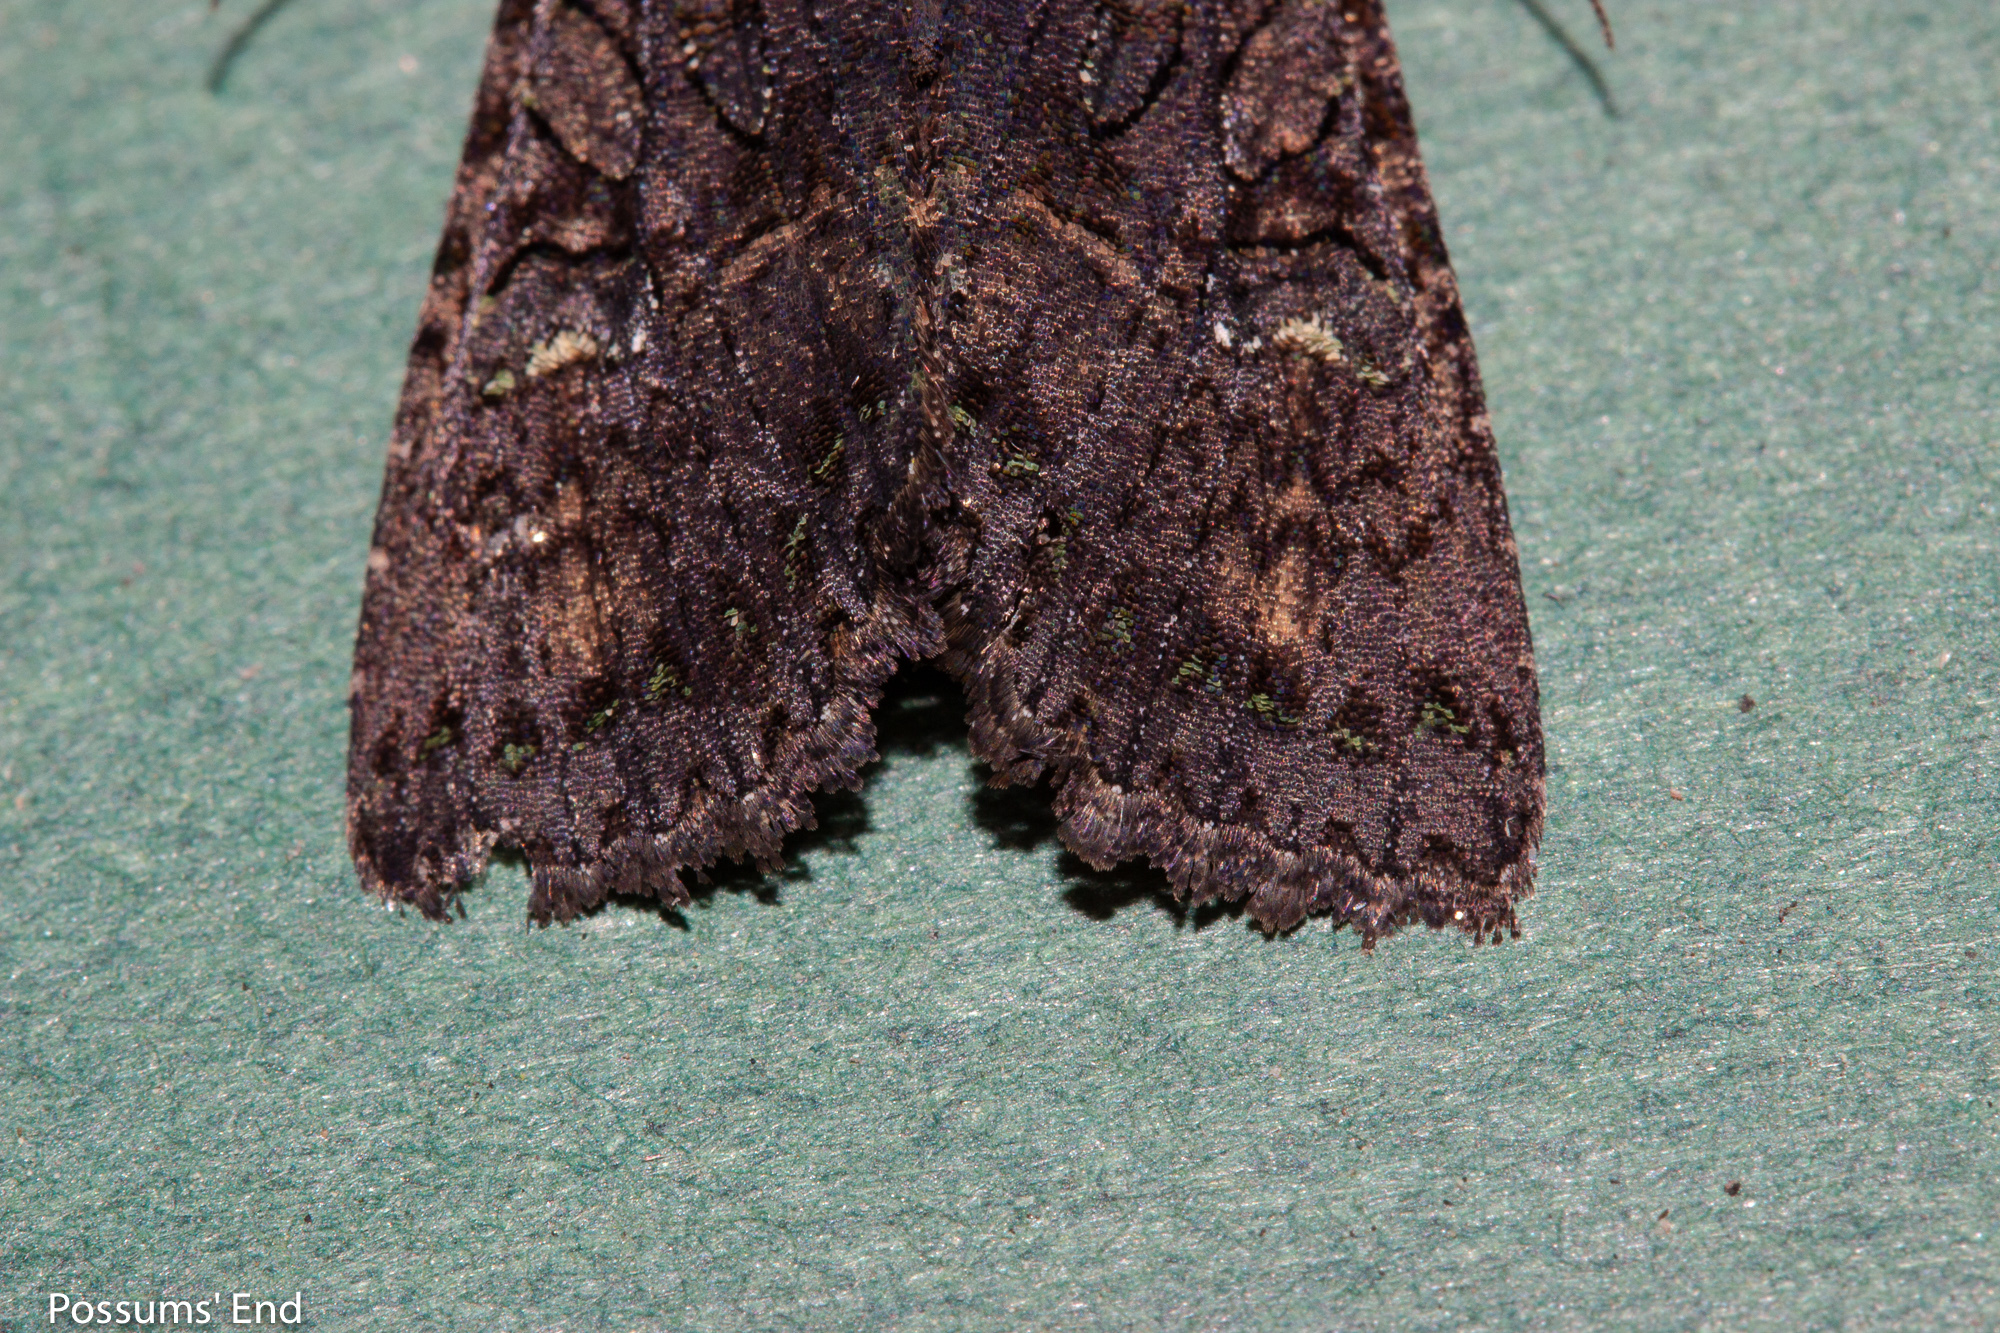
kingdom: Animalia
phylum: Arthropoda
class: Insecta
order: Lepidoptera
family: Noctuidae
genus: Meterana
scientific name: Meterana ochthistis
